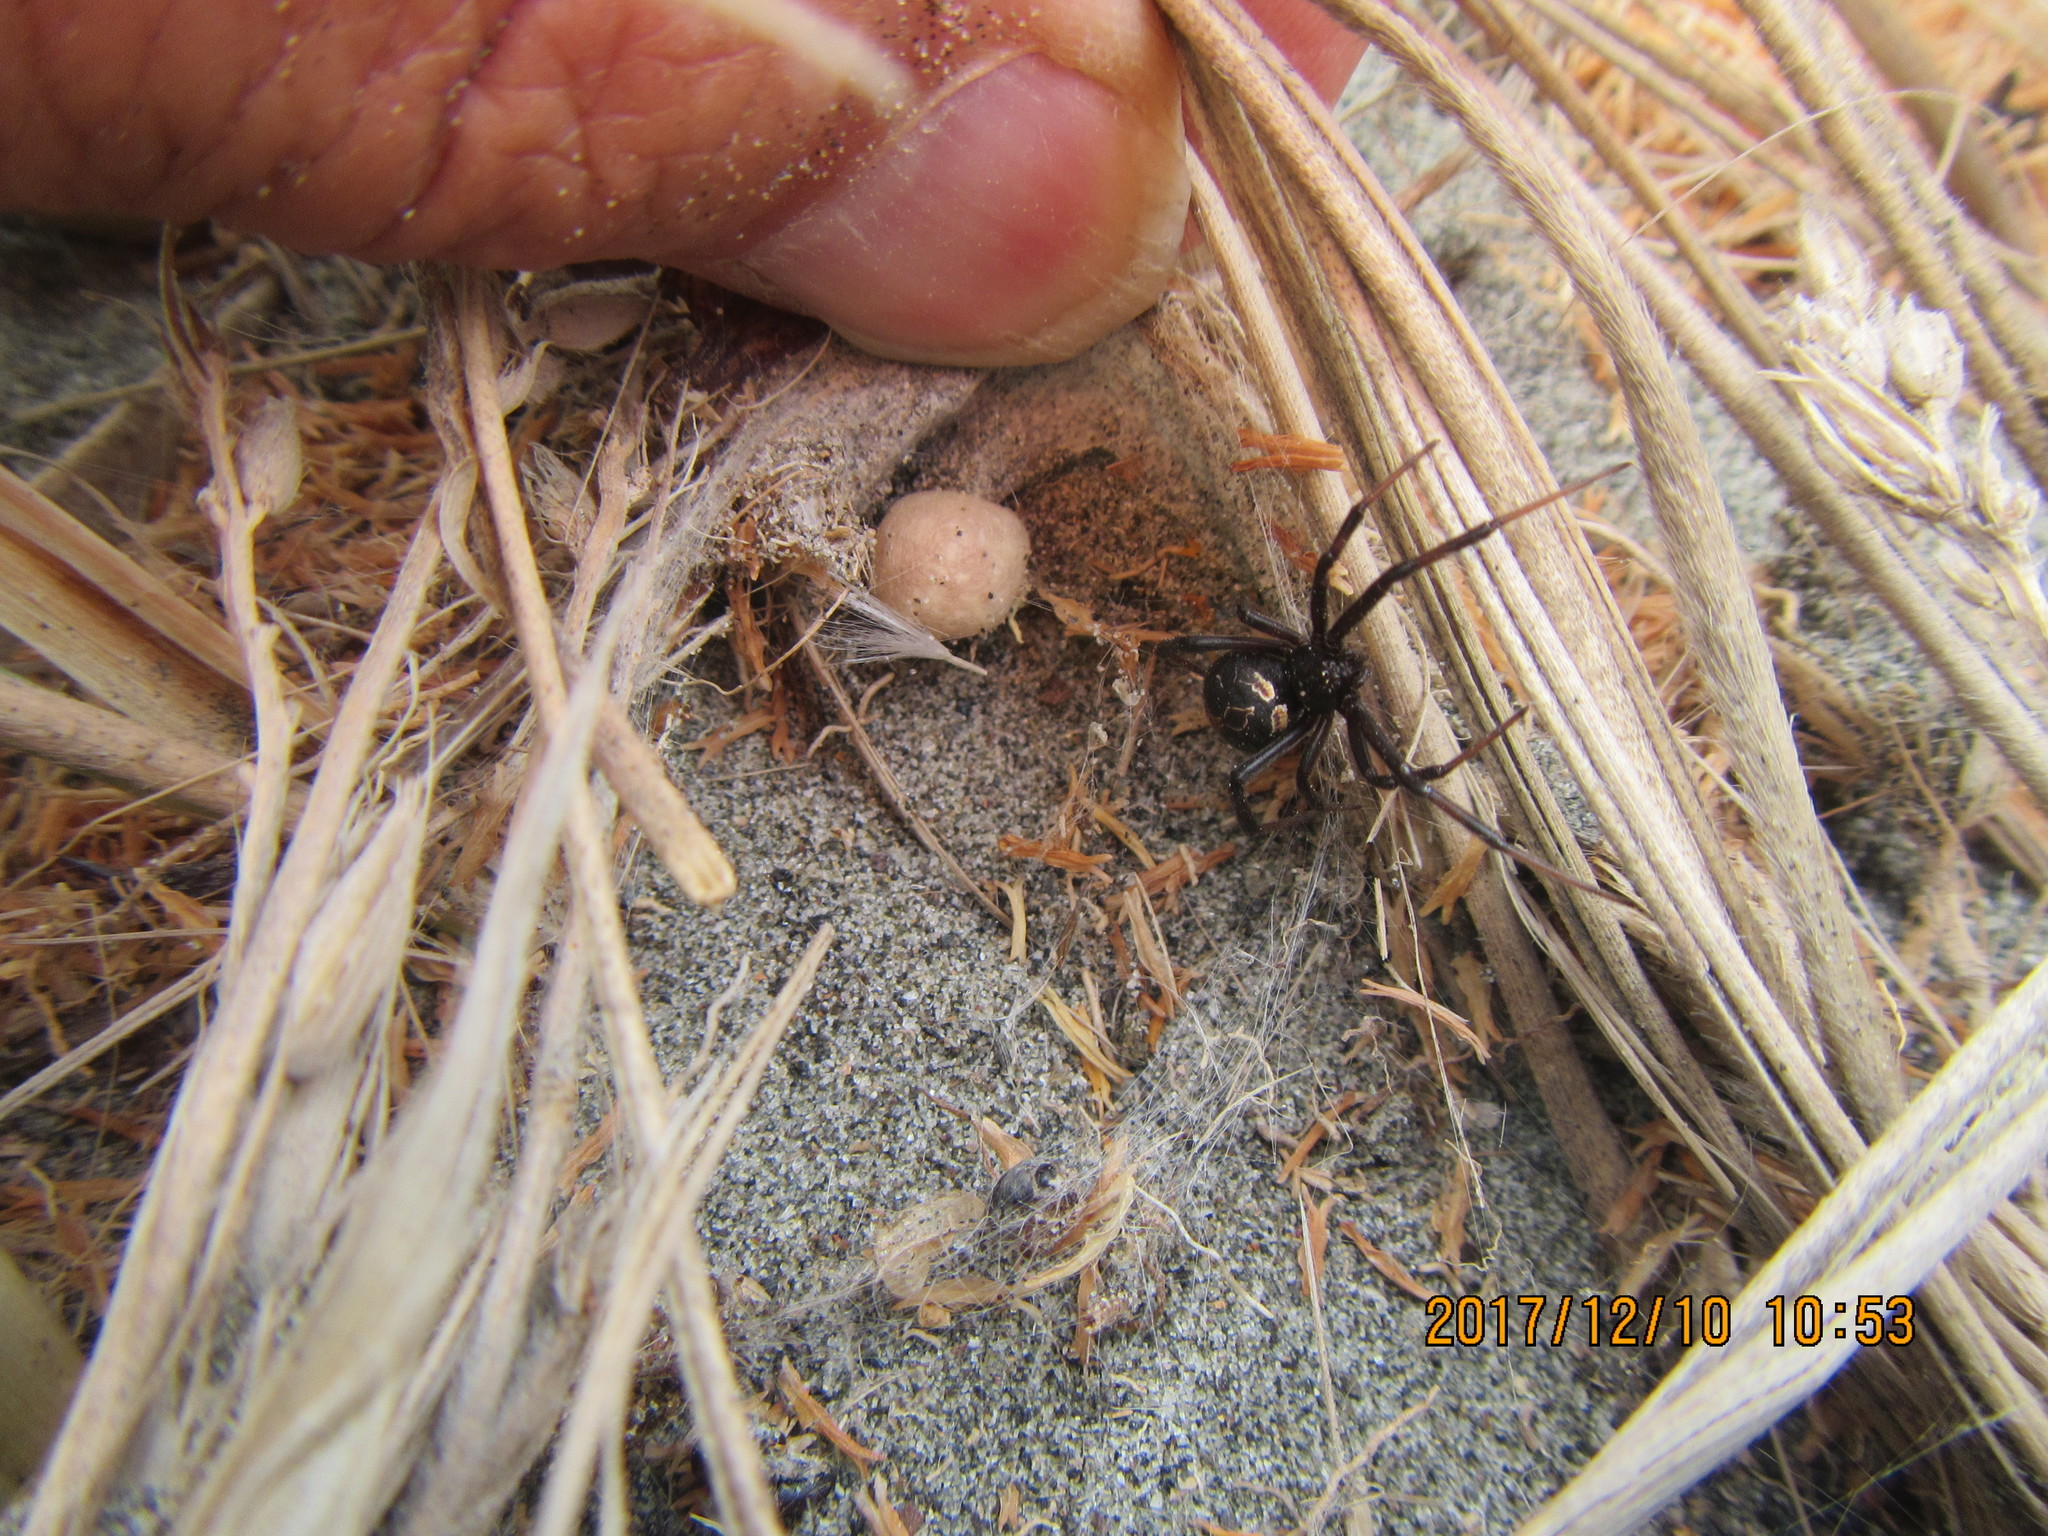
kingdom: Animalia
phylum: Arthropoda
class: Arachnida
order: Araneae
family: Theridiidae
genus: Latrodectus
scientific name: Latrodectus katipo
